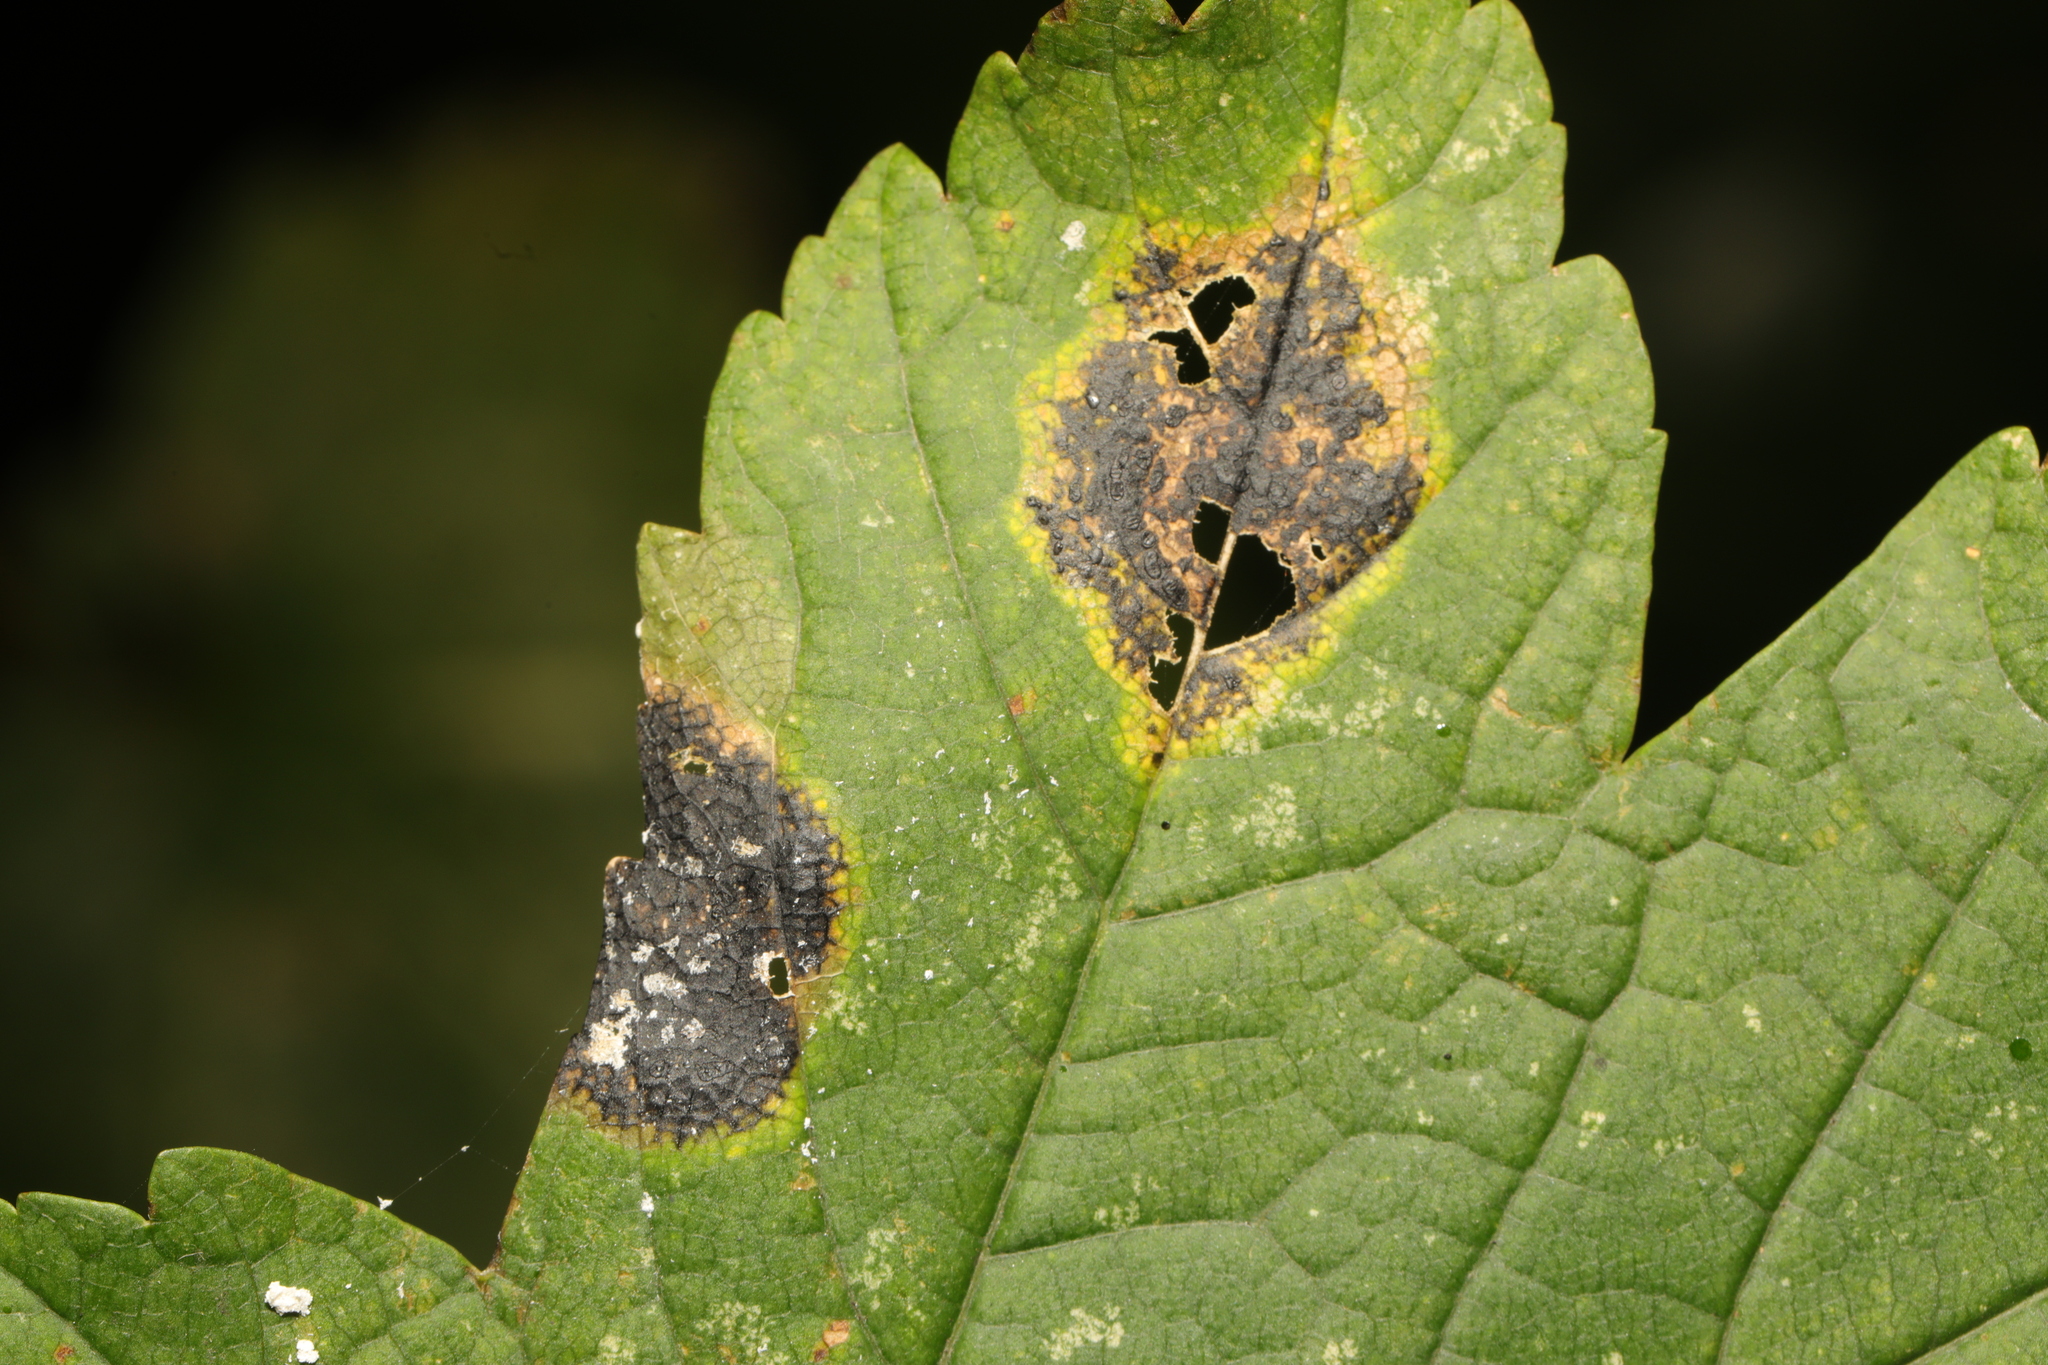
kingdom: Fungi
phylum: Ascomycota
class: Leotiomycetes
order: Rhytismatales
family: Rhytismataceae
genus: Rhytisma
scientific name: Rhytisma acerinum
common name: European tar spot
